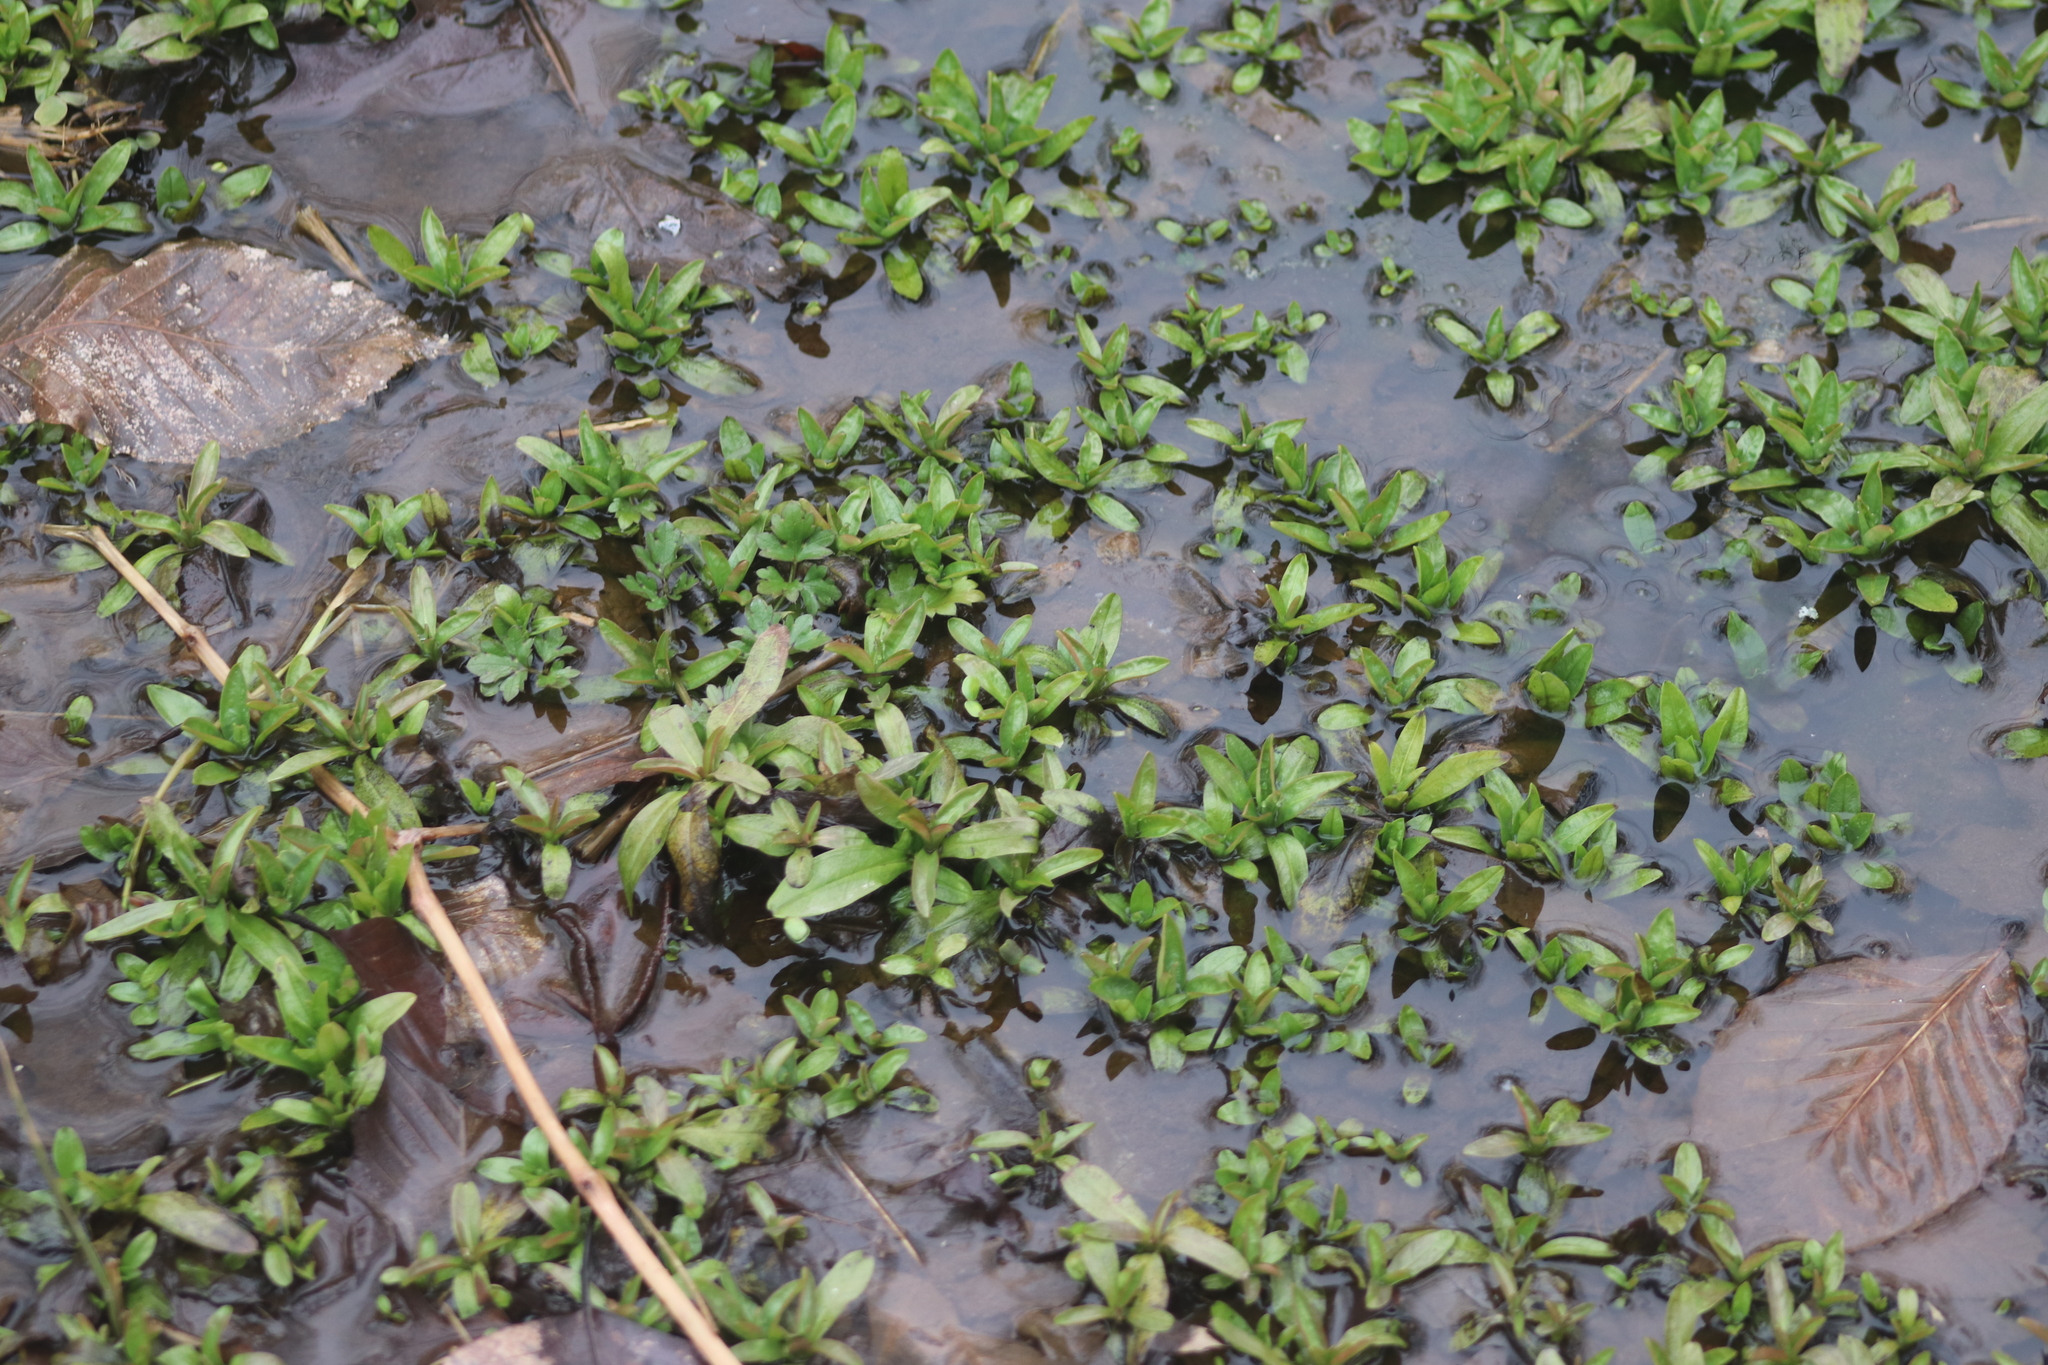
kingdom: Plantae
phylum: Tracheophyta
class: Magnoliopsida
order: Boraginales
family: Boraginaceae
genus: Myosotis
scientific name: Myosotis scorpioides
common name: Water forget-me-not
